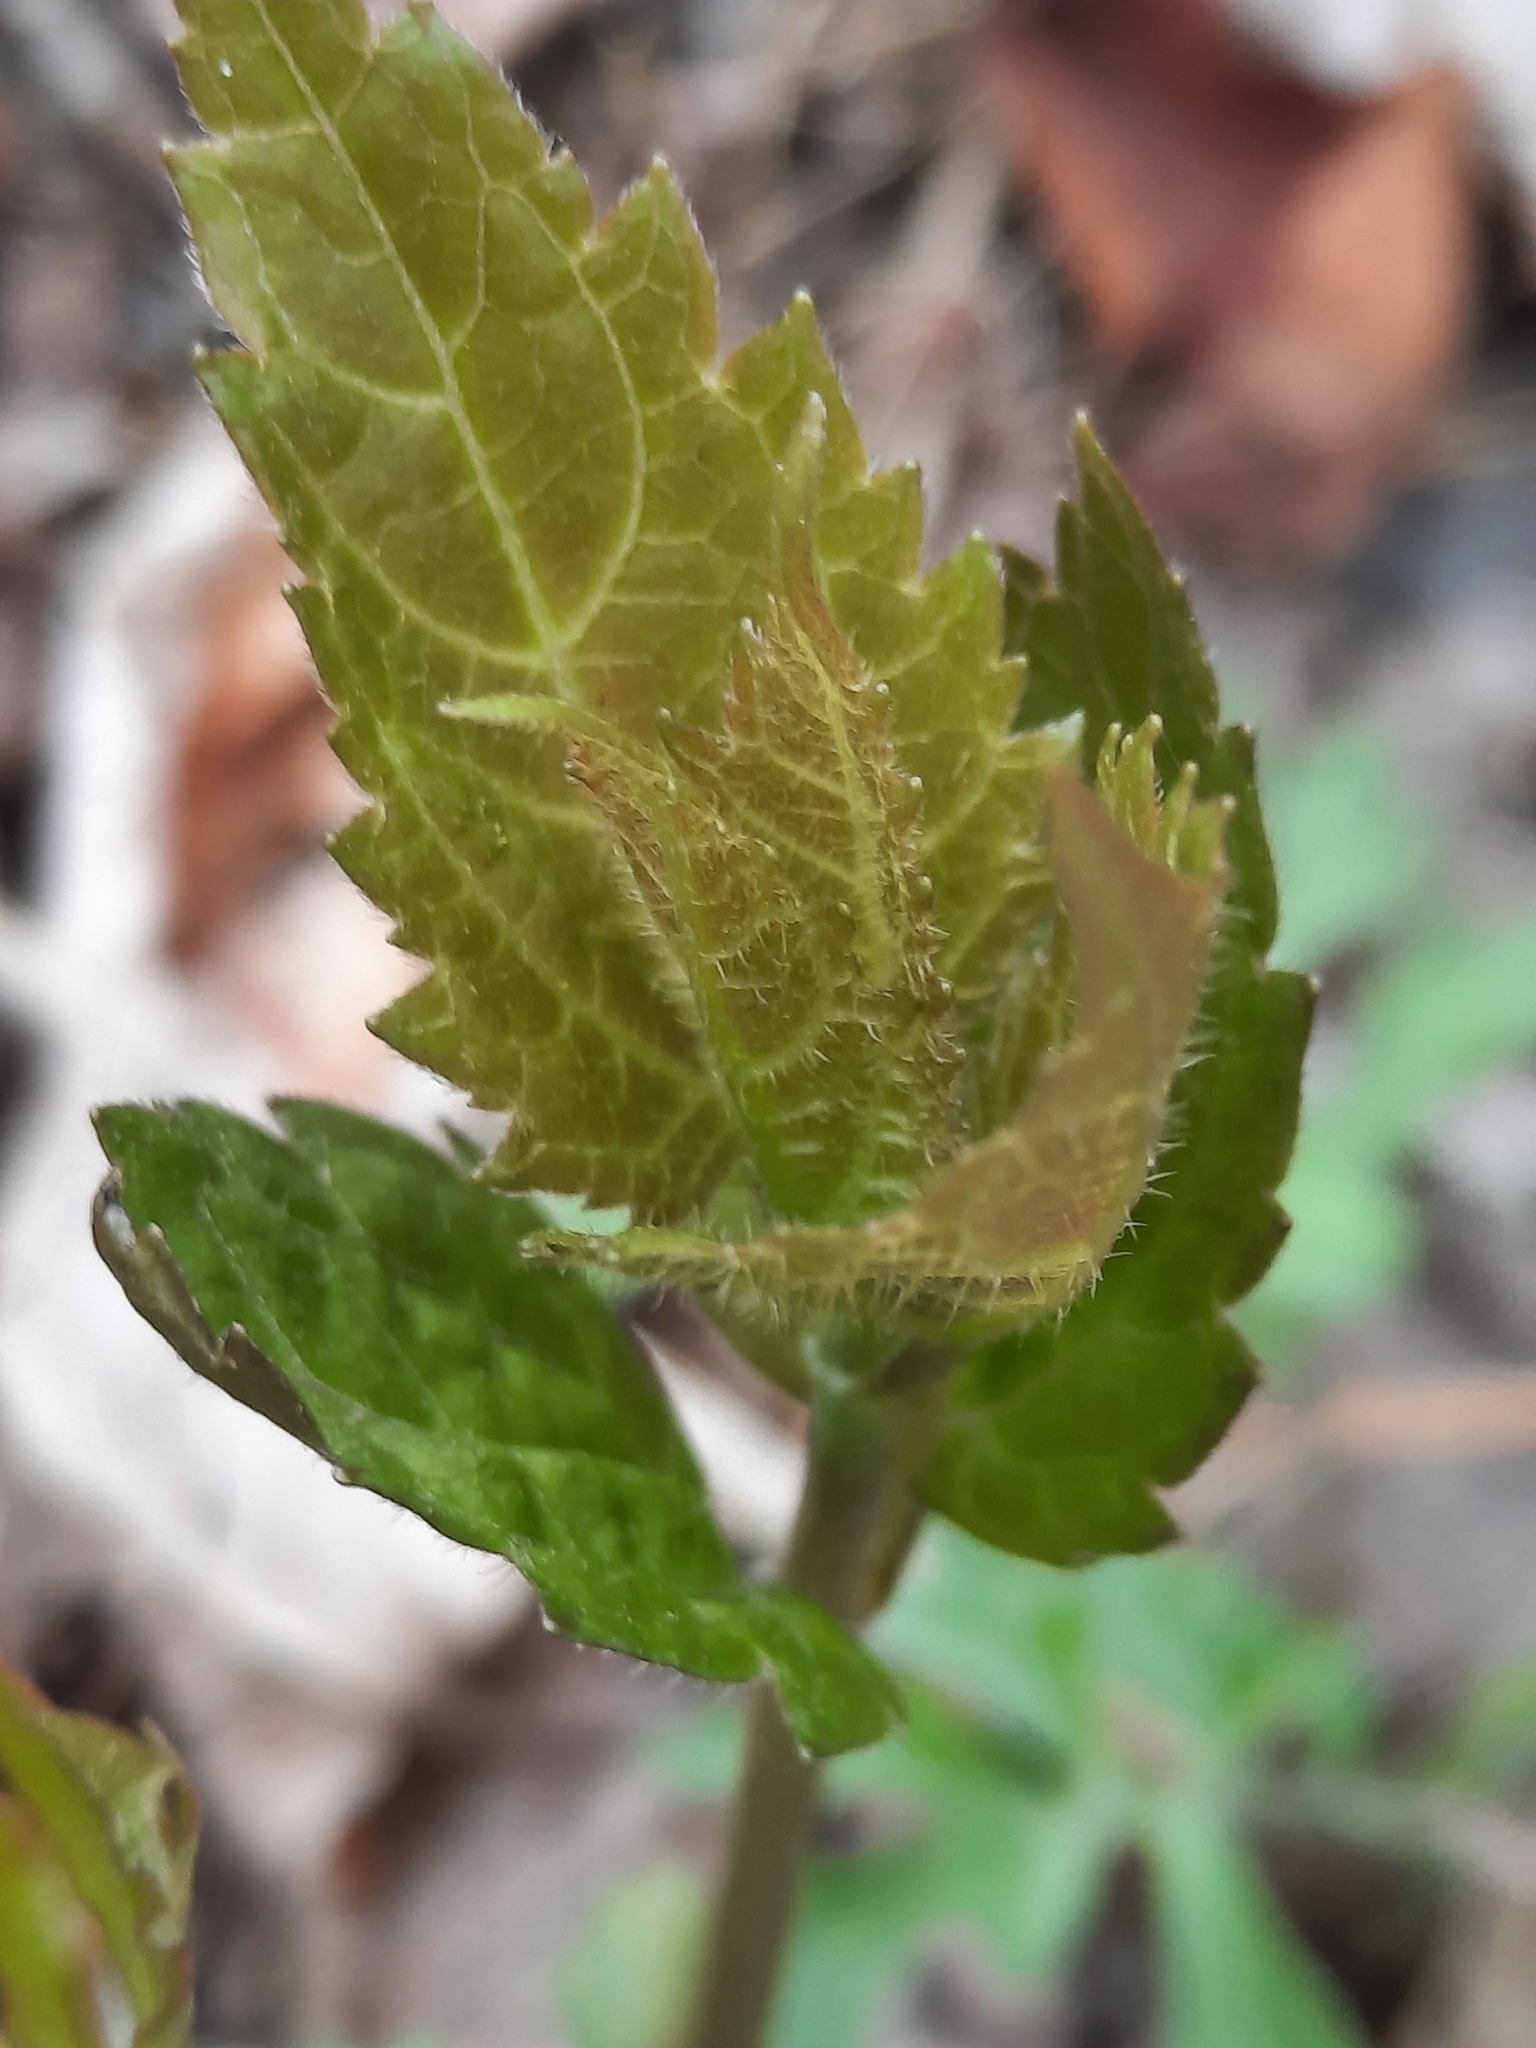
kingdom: Plantae
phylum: Tracheophyta
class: Magnoliopsida
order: Asterales
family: Asteraceae
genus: Ageratina
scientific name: Ageratina altissima
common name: White snakeroot
